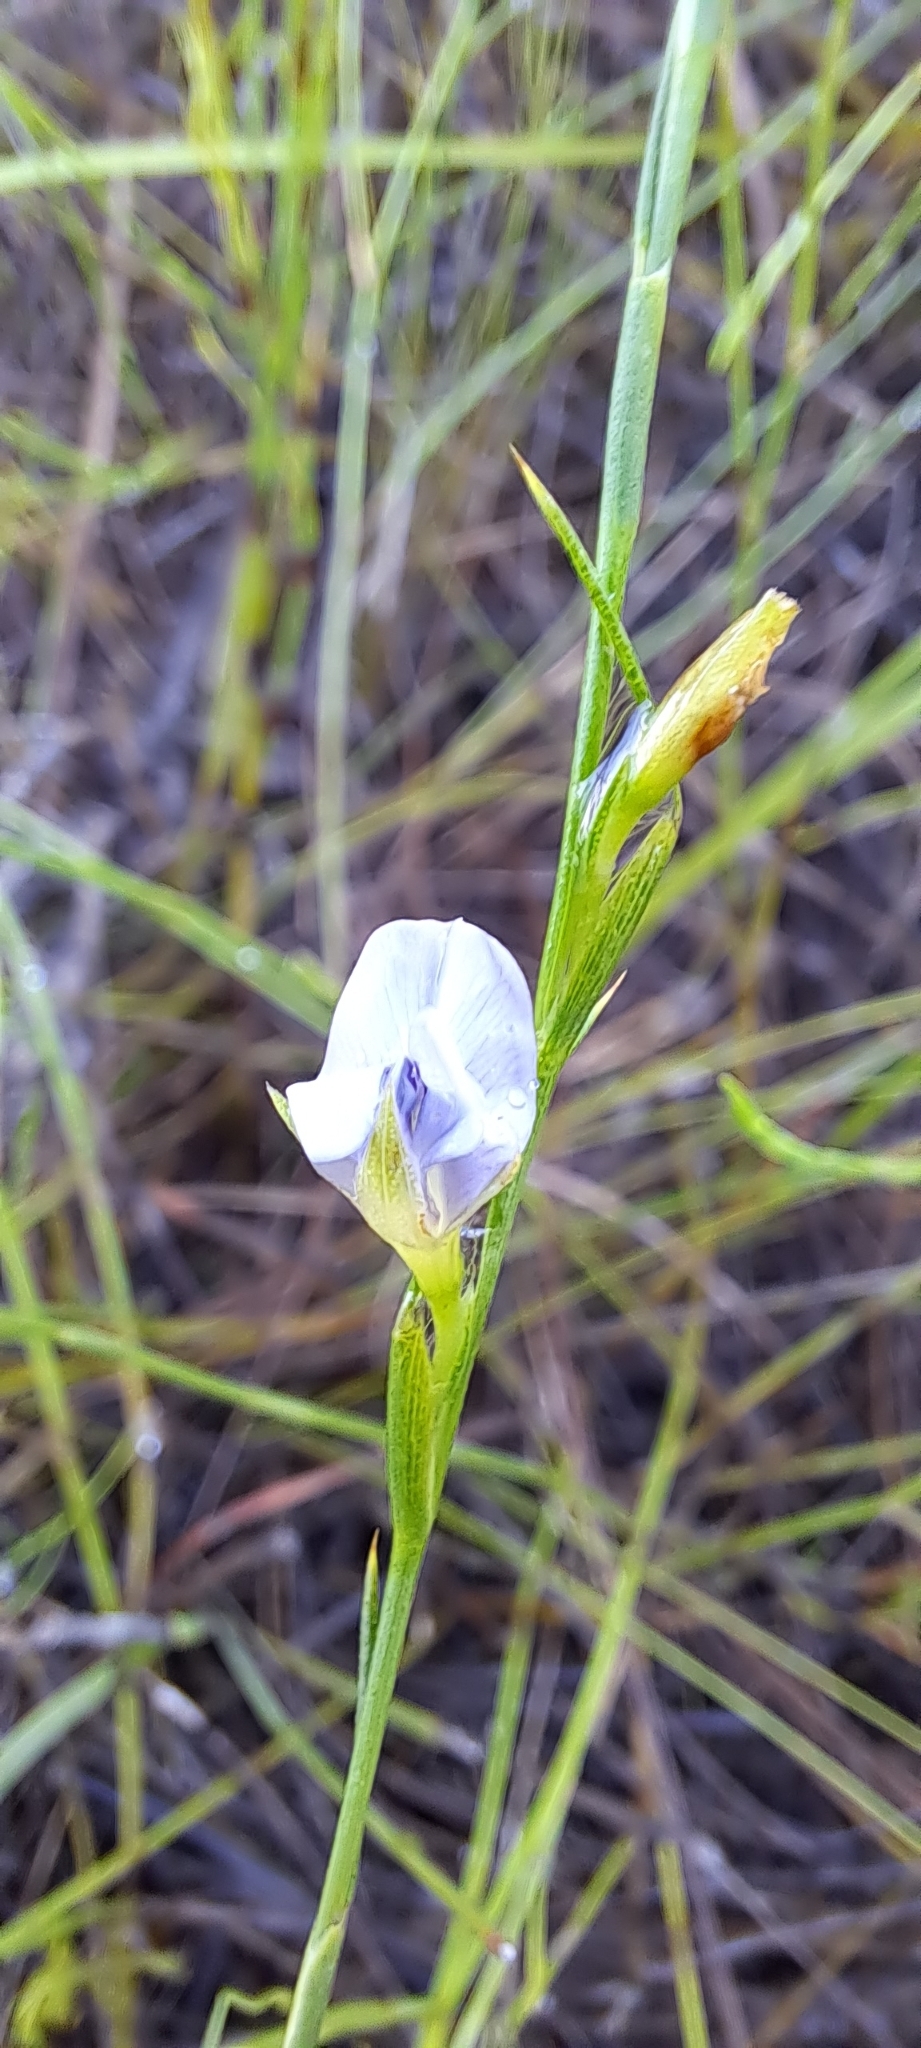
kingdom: Plantae
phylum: Tracheophyta
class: Magnoliopsida
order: Fabales
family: Fabaceae
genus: Psoralea
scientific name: Psoralea restioides
